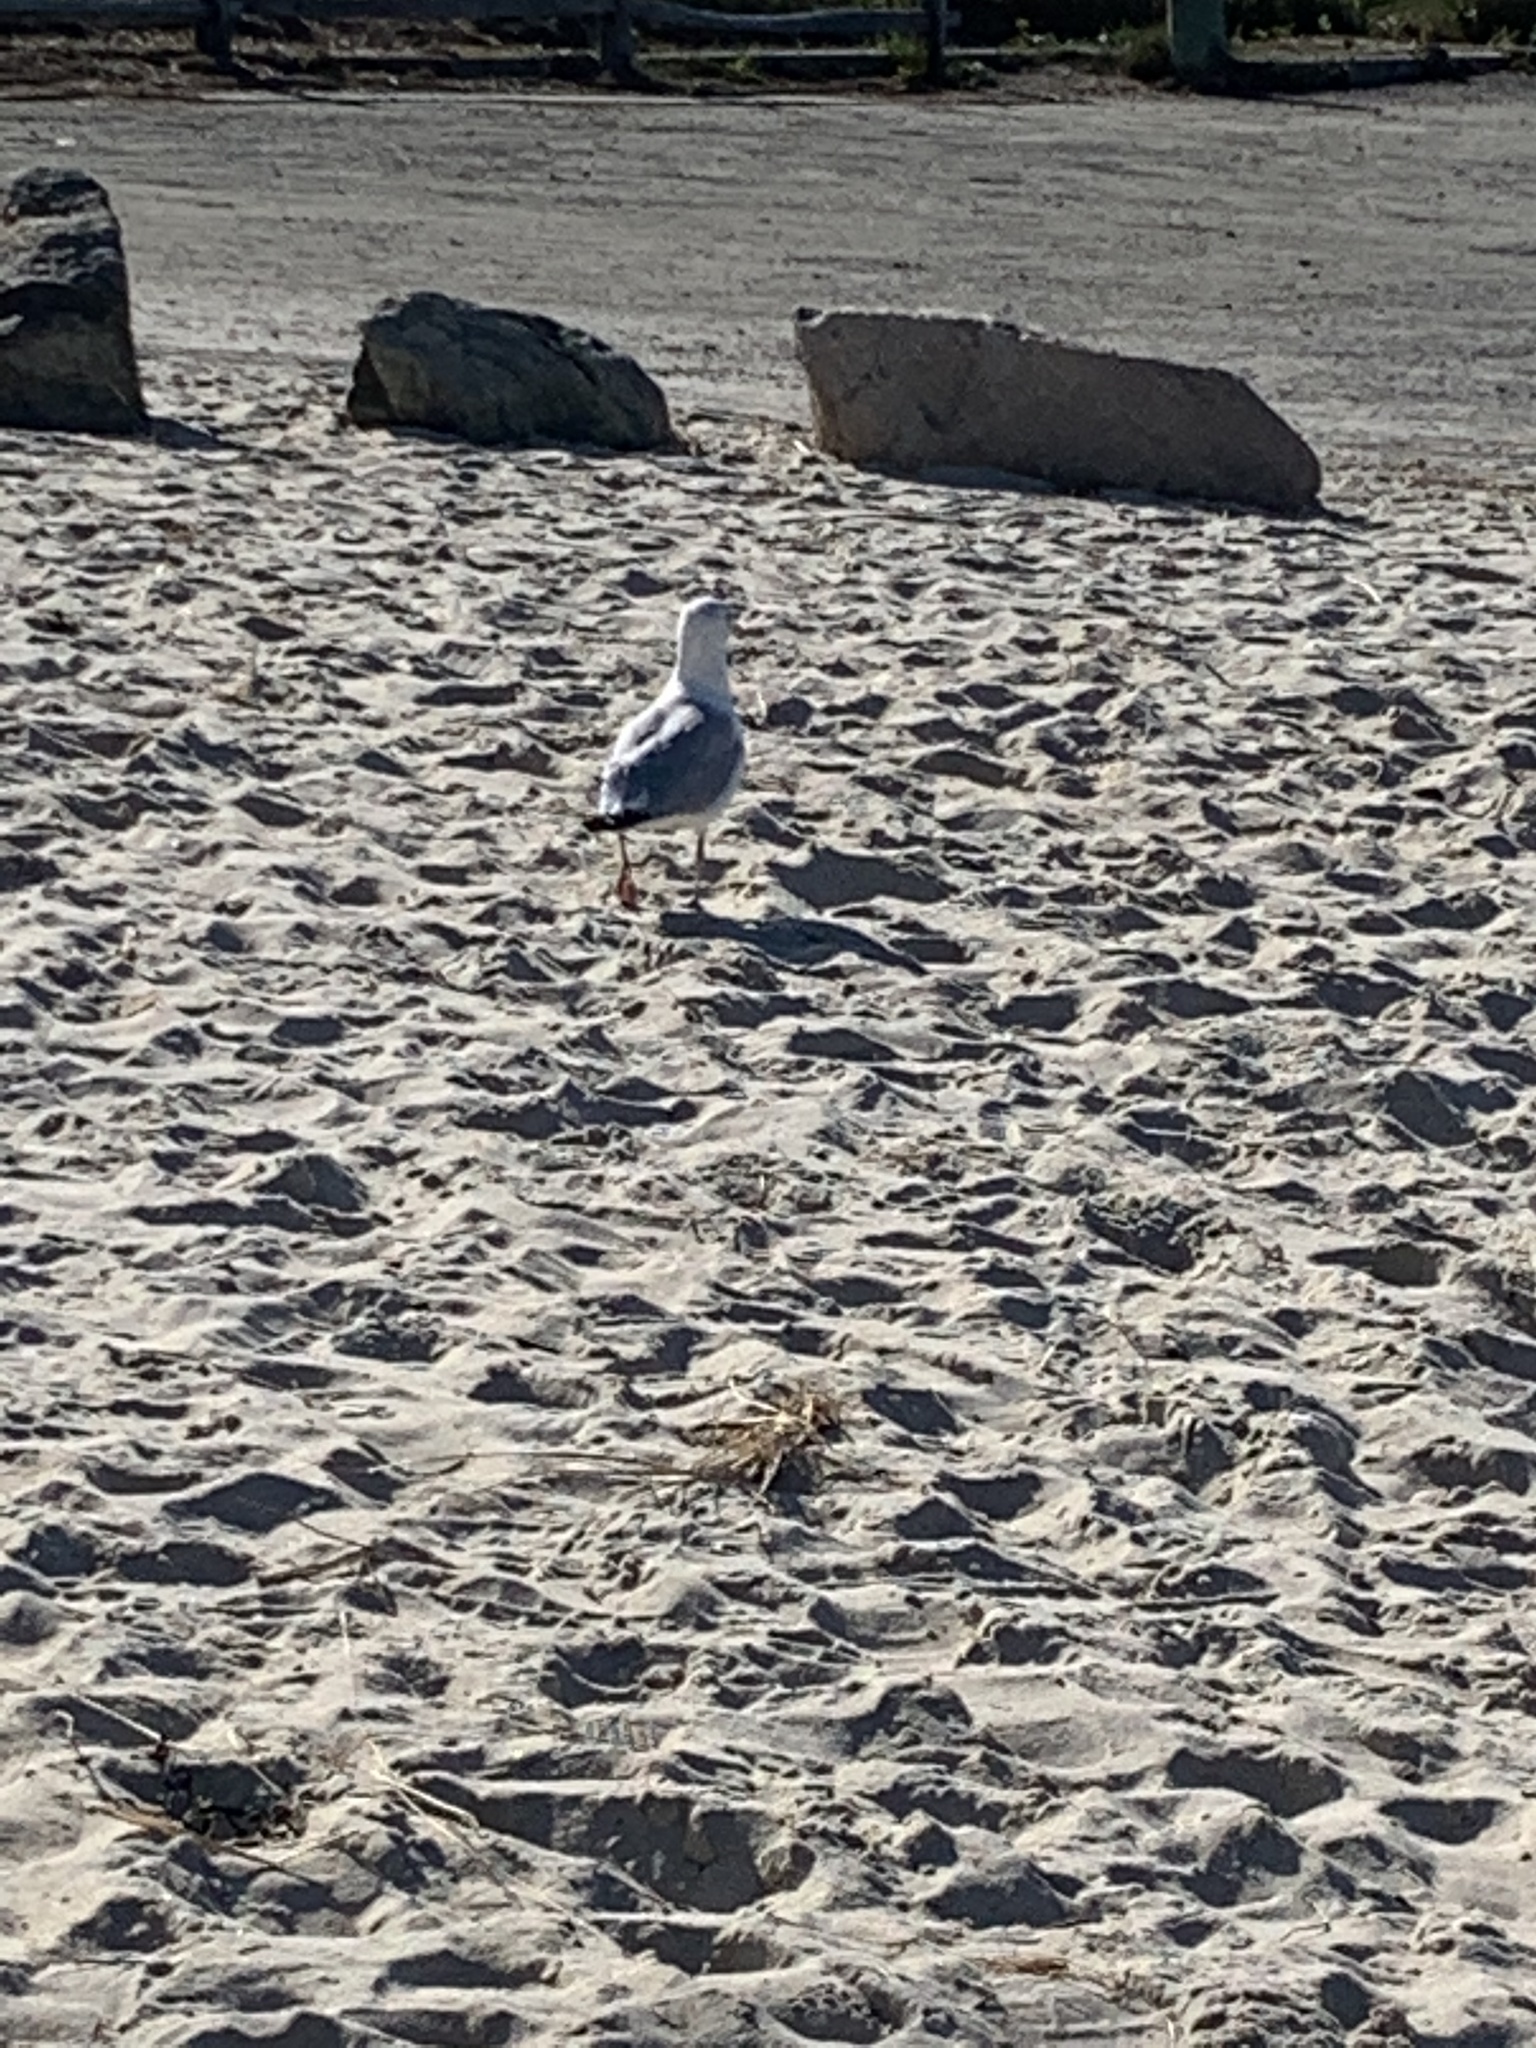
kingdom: Animalia
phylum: Chordata
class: Aves
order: Charadriiformes
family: Laridae
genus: Larus
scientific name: Larus argentatus
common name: Herring gull
